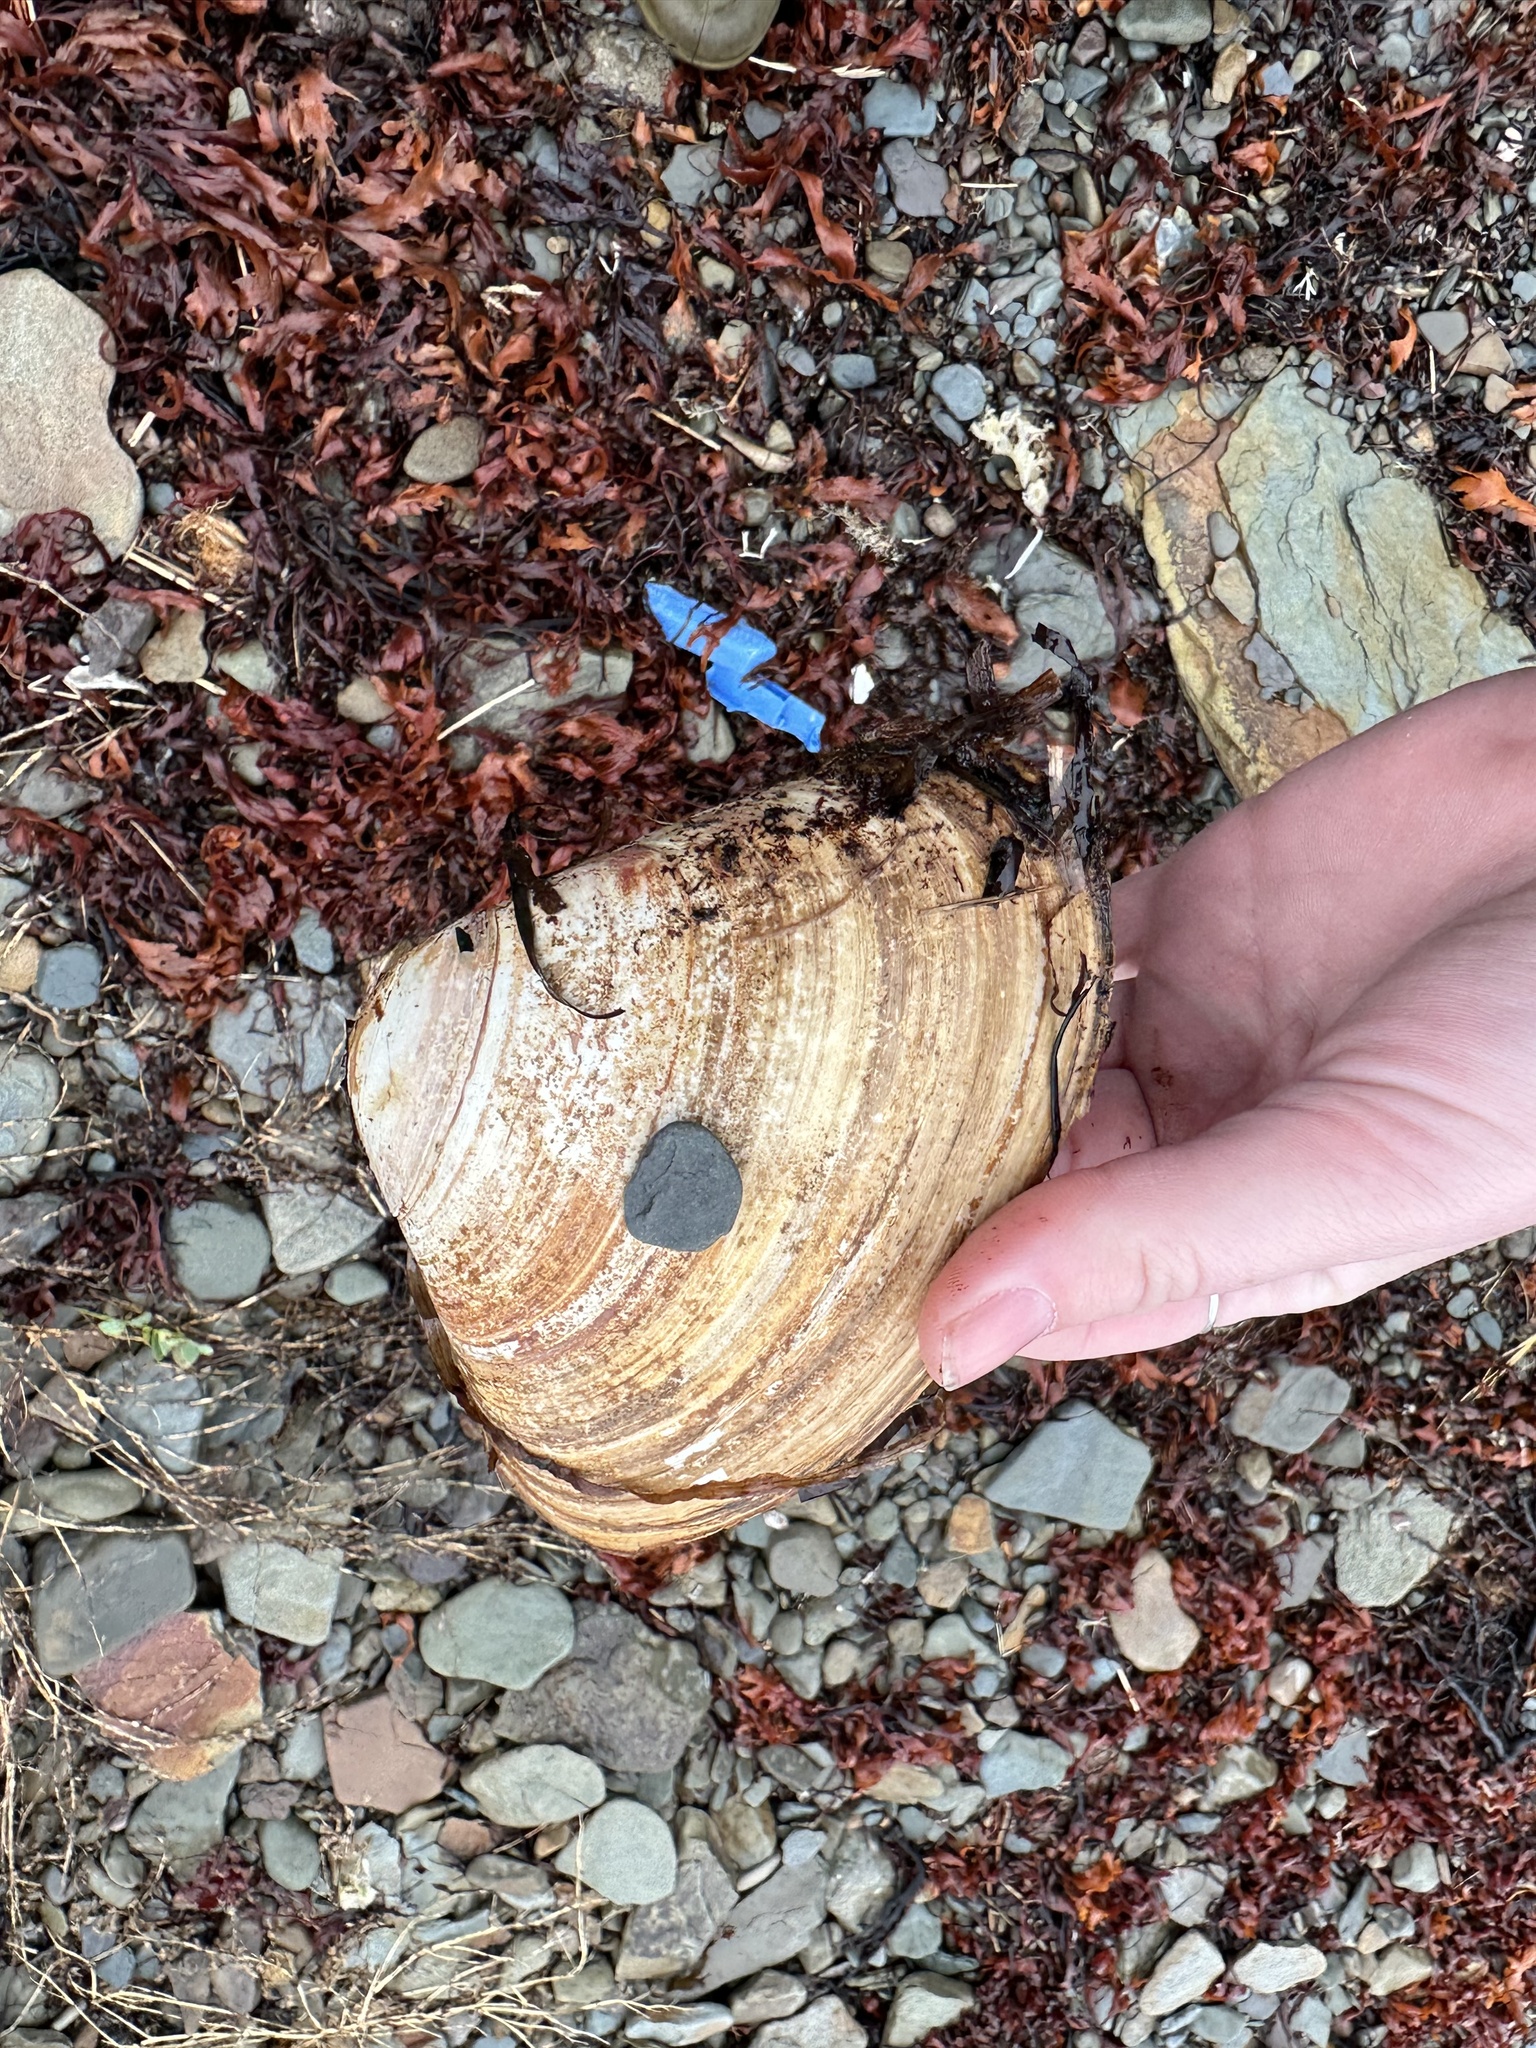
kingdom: Animalia
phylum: Mollusca
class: Bivalvia
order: Venerida
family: Mactridae
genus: Spisula
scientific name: Spisula solidissima
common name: Atlantic surf clam
